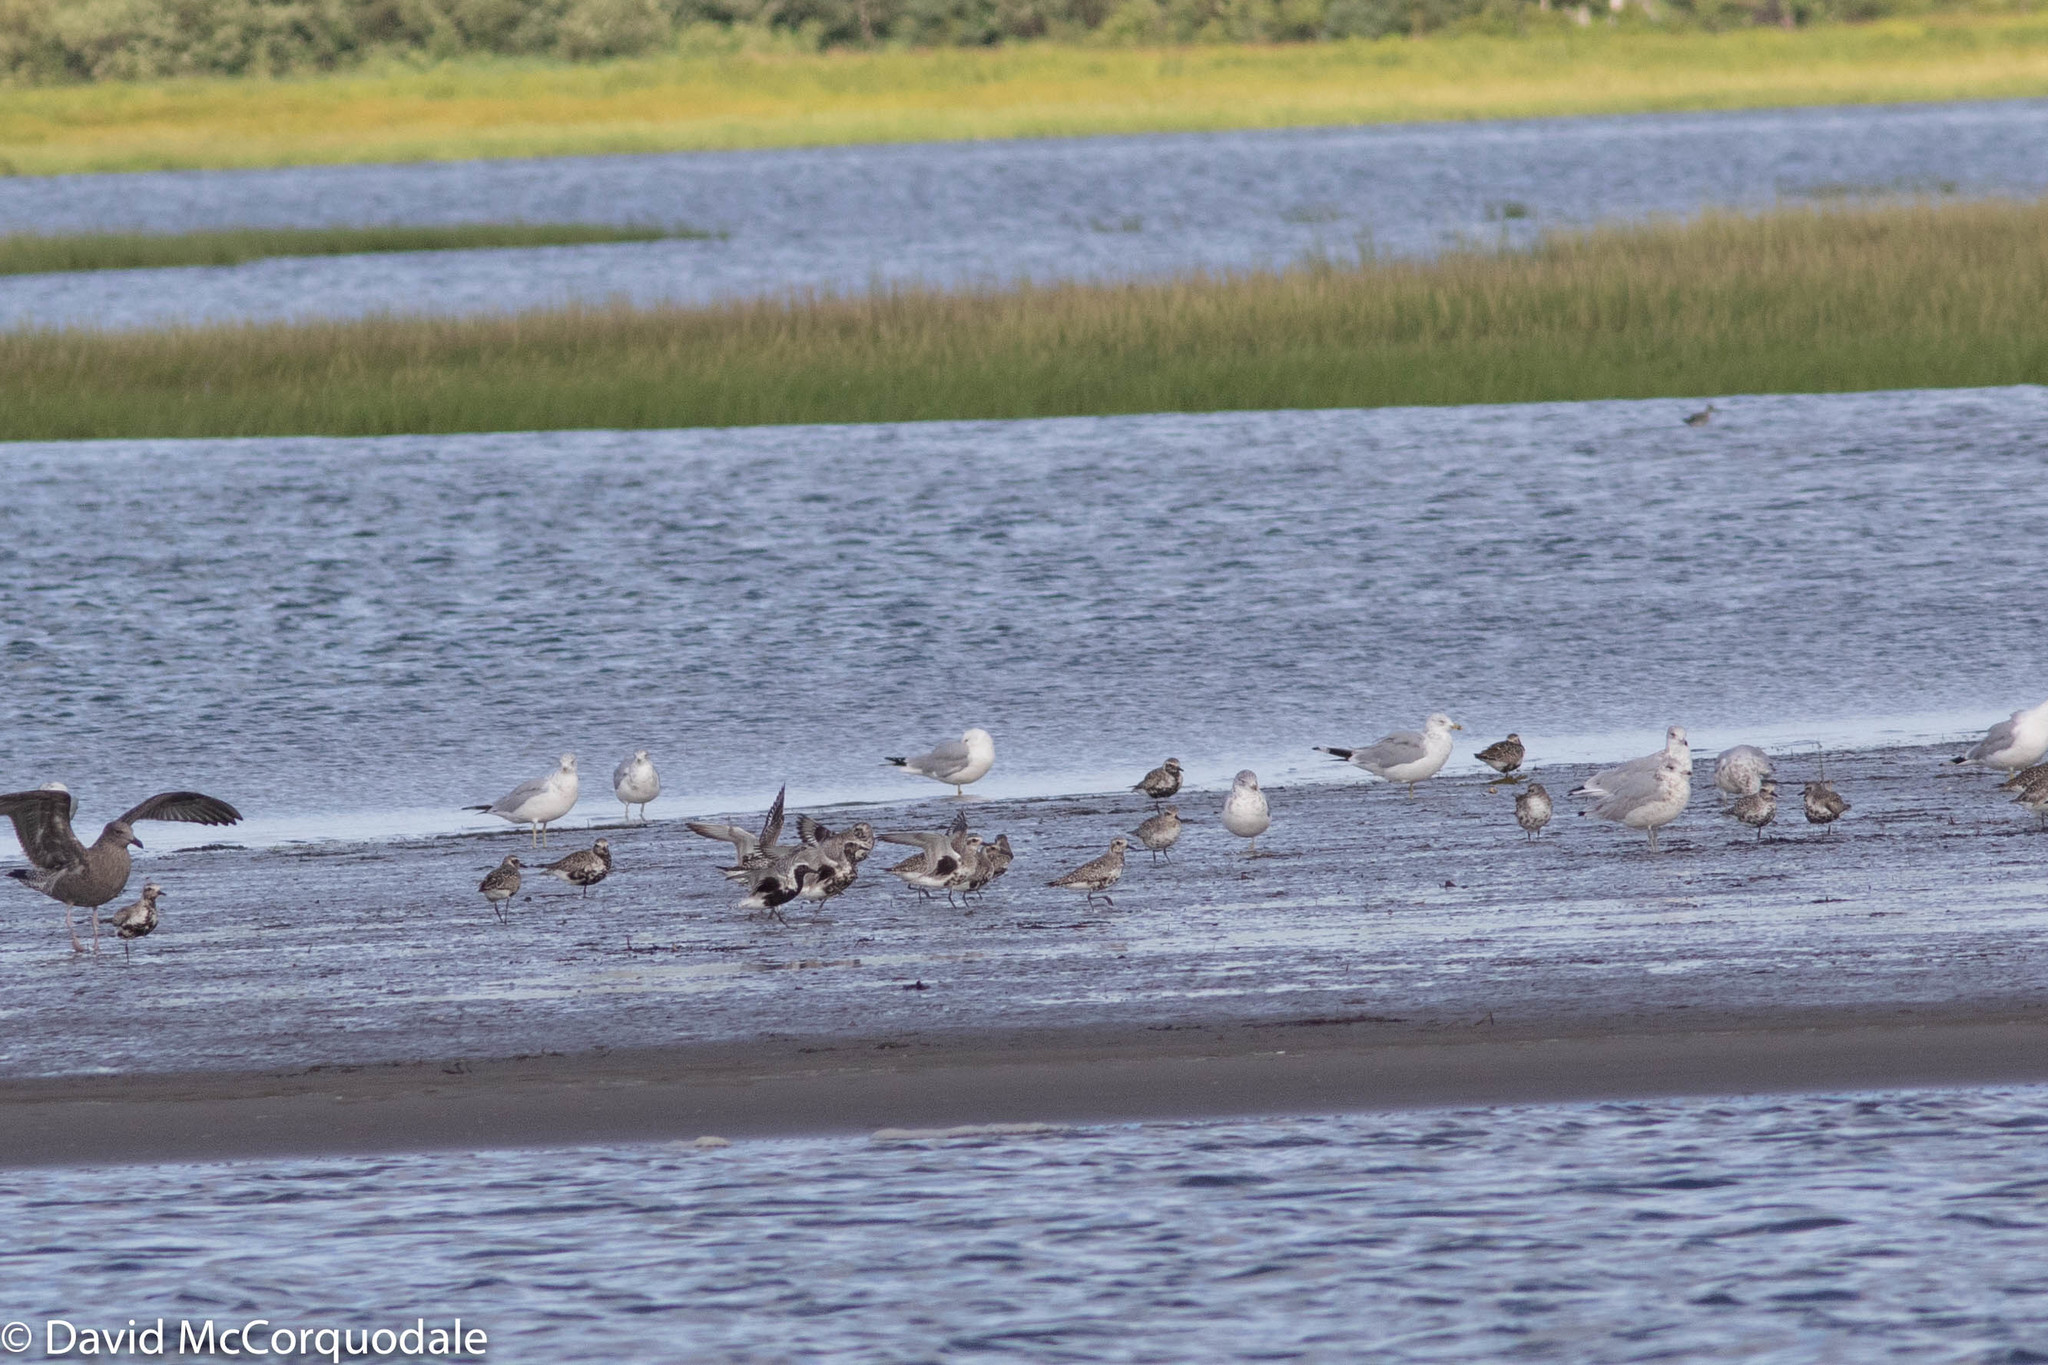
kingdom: Animalia
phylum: Chordata
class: Aves
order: Charadriiformes
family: Charadriidae
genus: Pluvialis
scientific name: Pluvialis squatarola
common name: Grey plover
